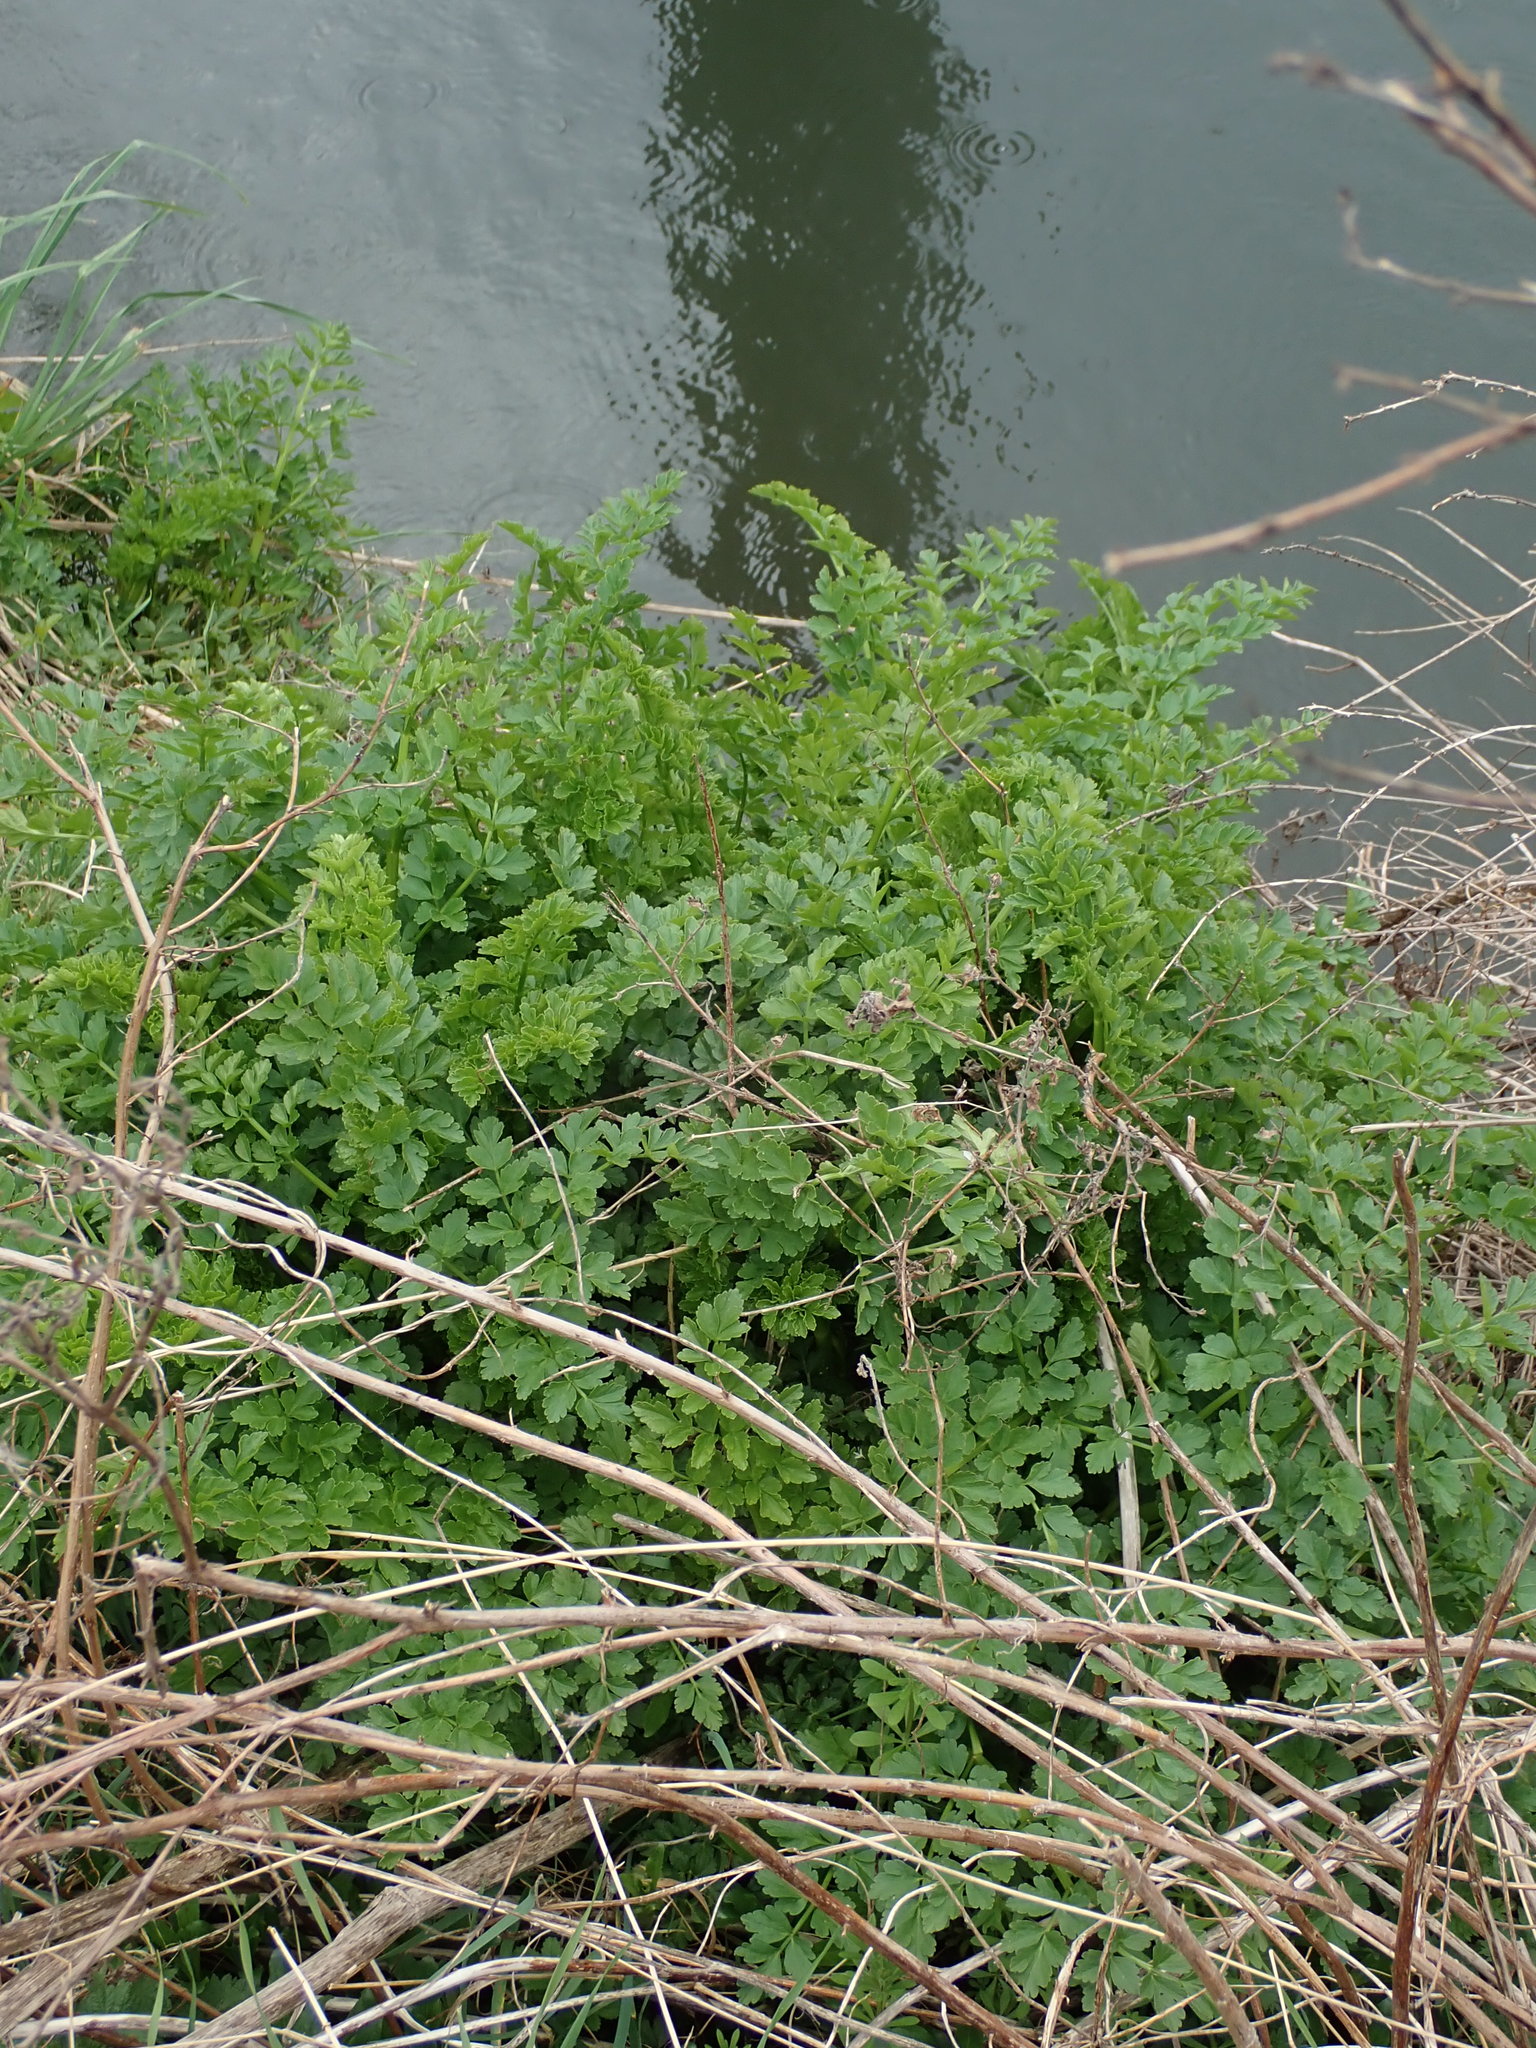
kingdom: Plantae
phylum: Tracheophyta
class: Magnoliopsida
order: Apiales
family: Apiaceae
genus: Oenanthe
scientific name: Oenanthe crocata
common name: Hemlock water-dropwort
